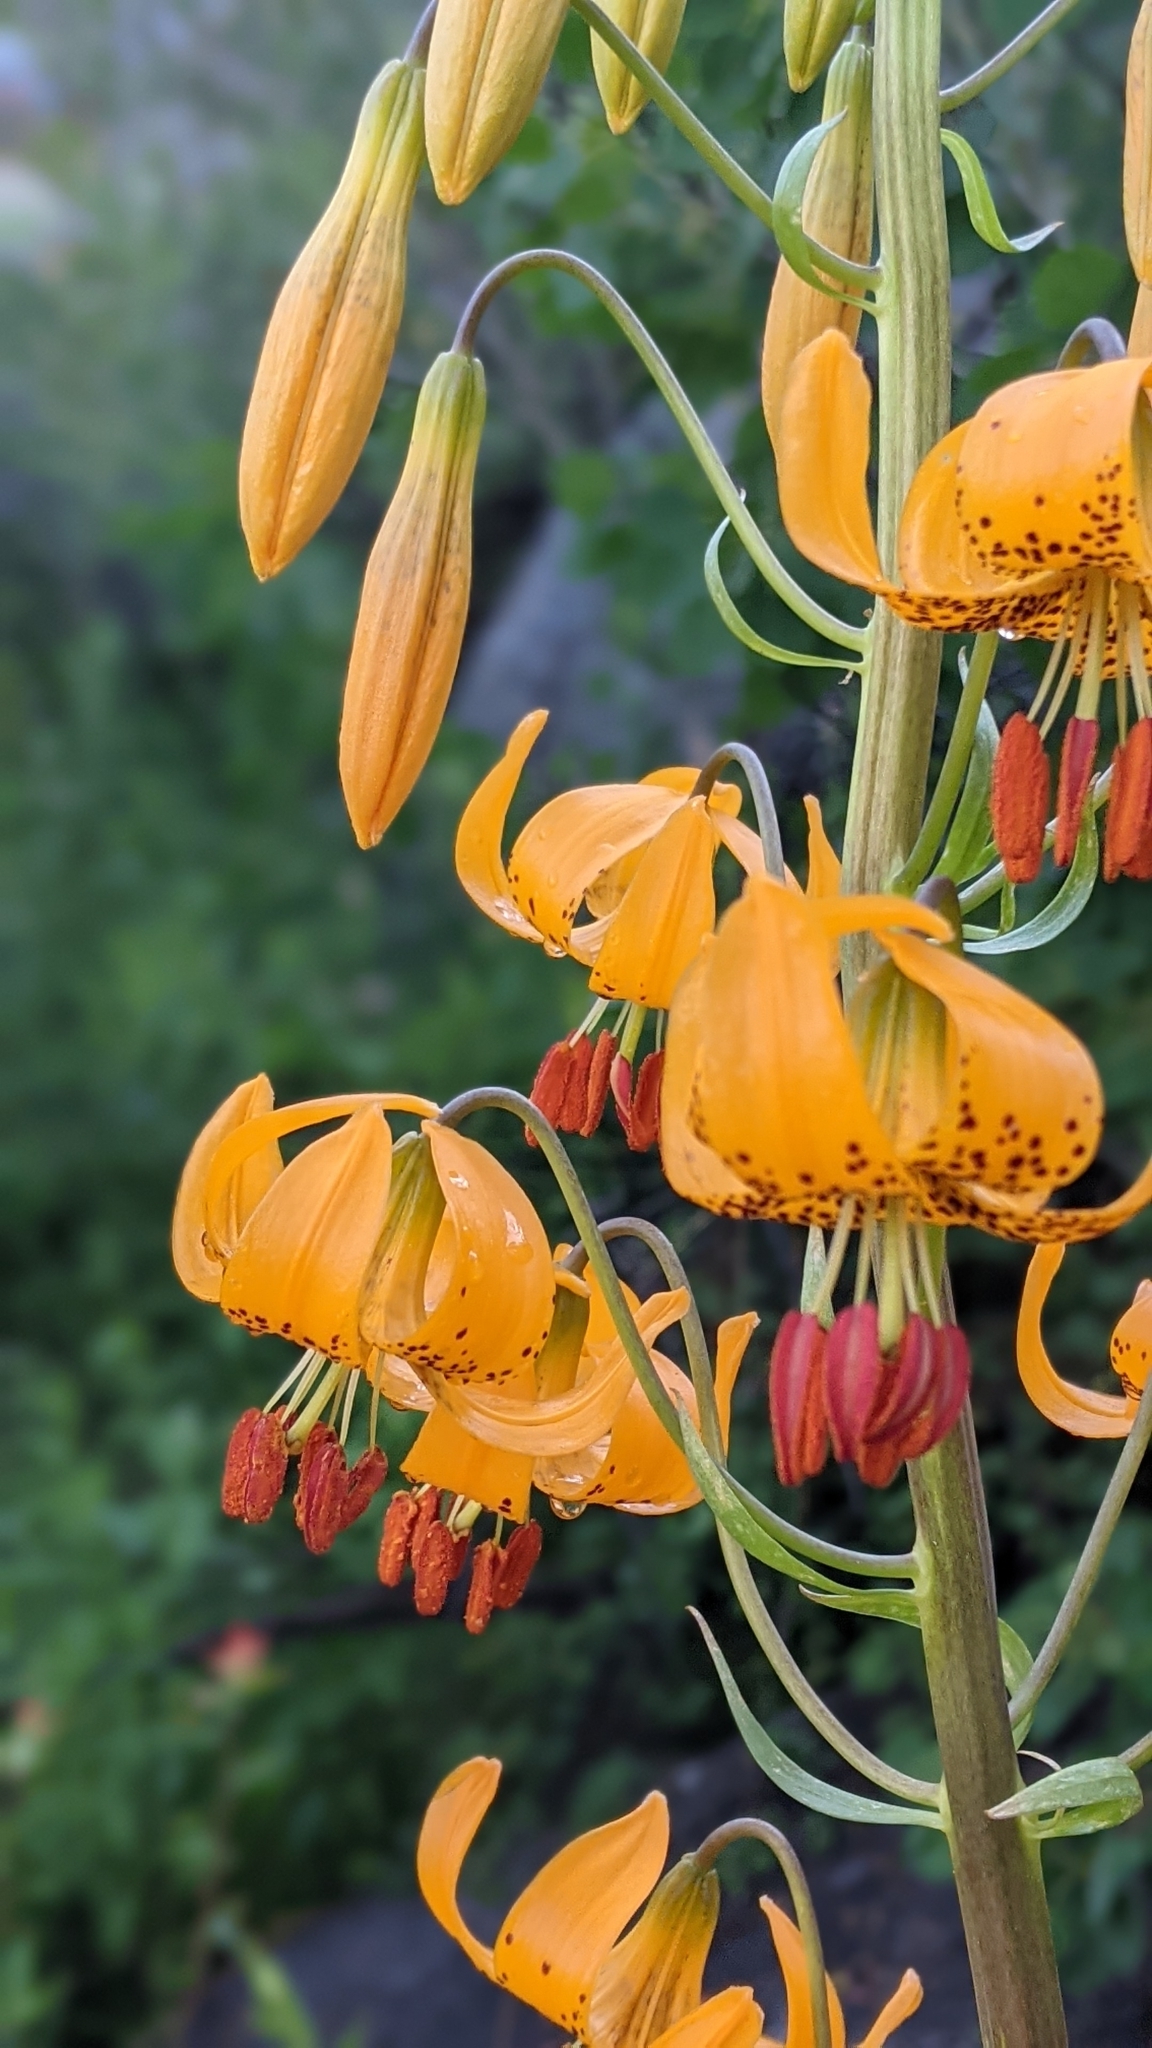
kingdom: Plantae
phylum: Tracheophyta
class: Liliopsida
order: Liliales
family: Liliaceae
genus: Lilium
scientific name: Lilium kelleyanum
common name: Kelley's lily
